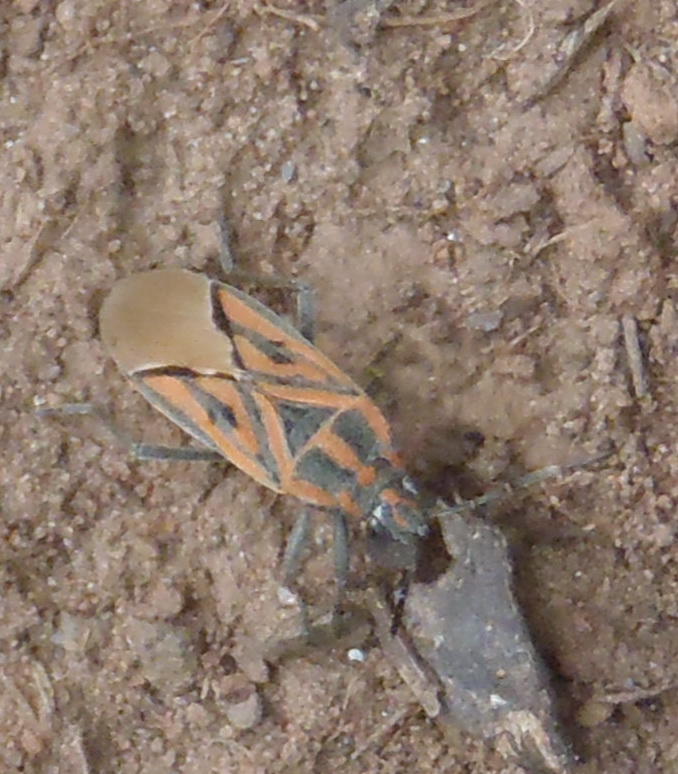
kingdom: Animalia
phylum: Arthropoda
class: Insecta
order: Hemiptera
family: Lygaeidae
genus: Spilostethus
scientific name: Spilostethus rivularis
